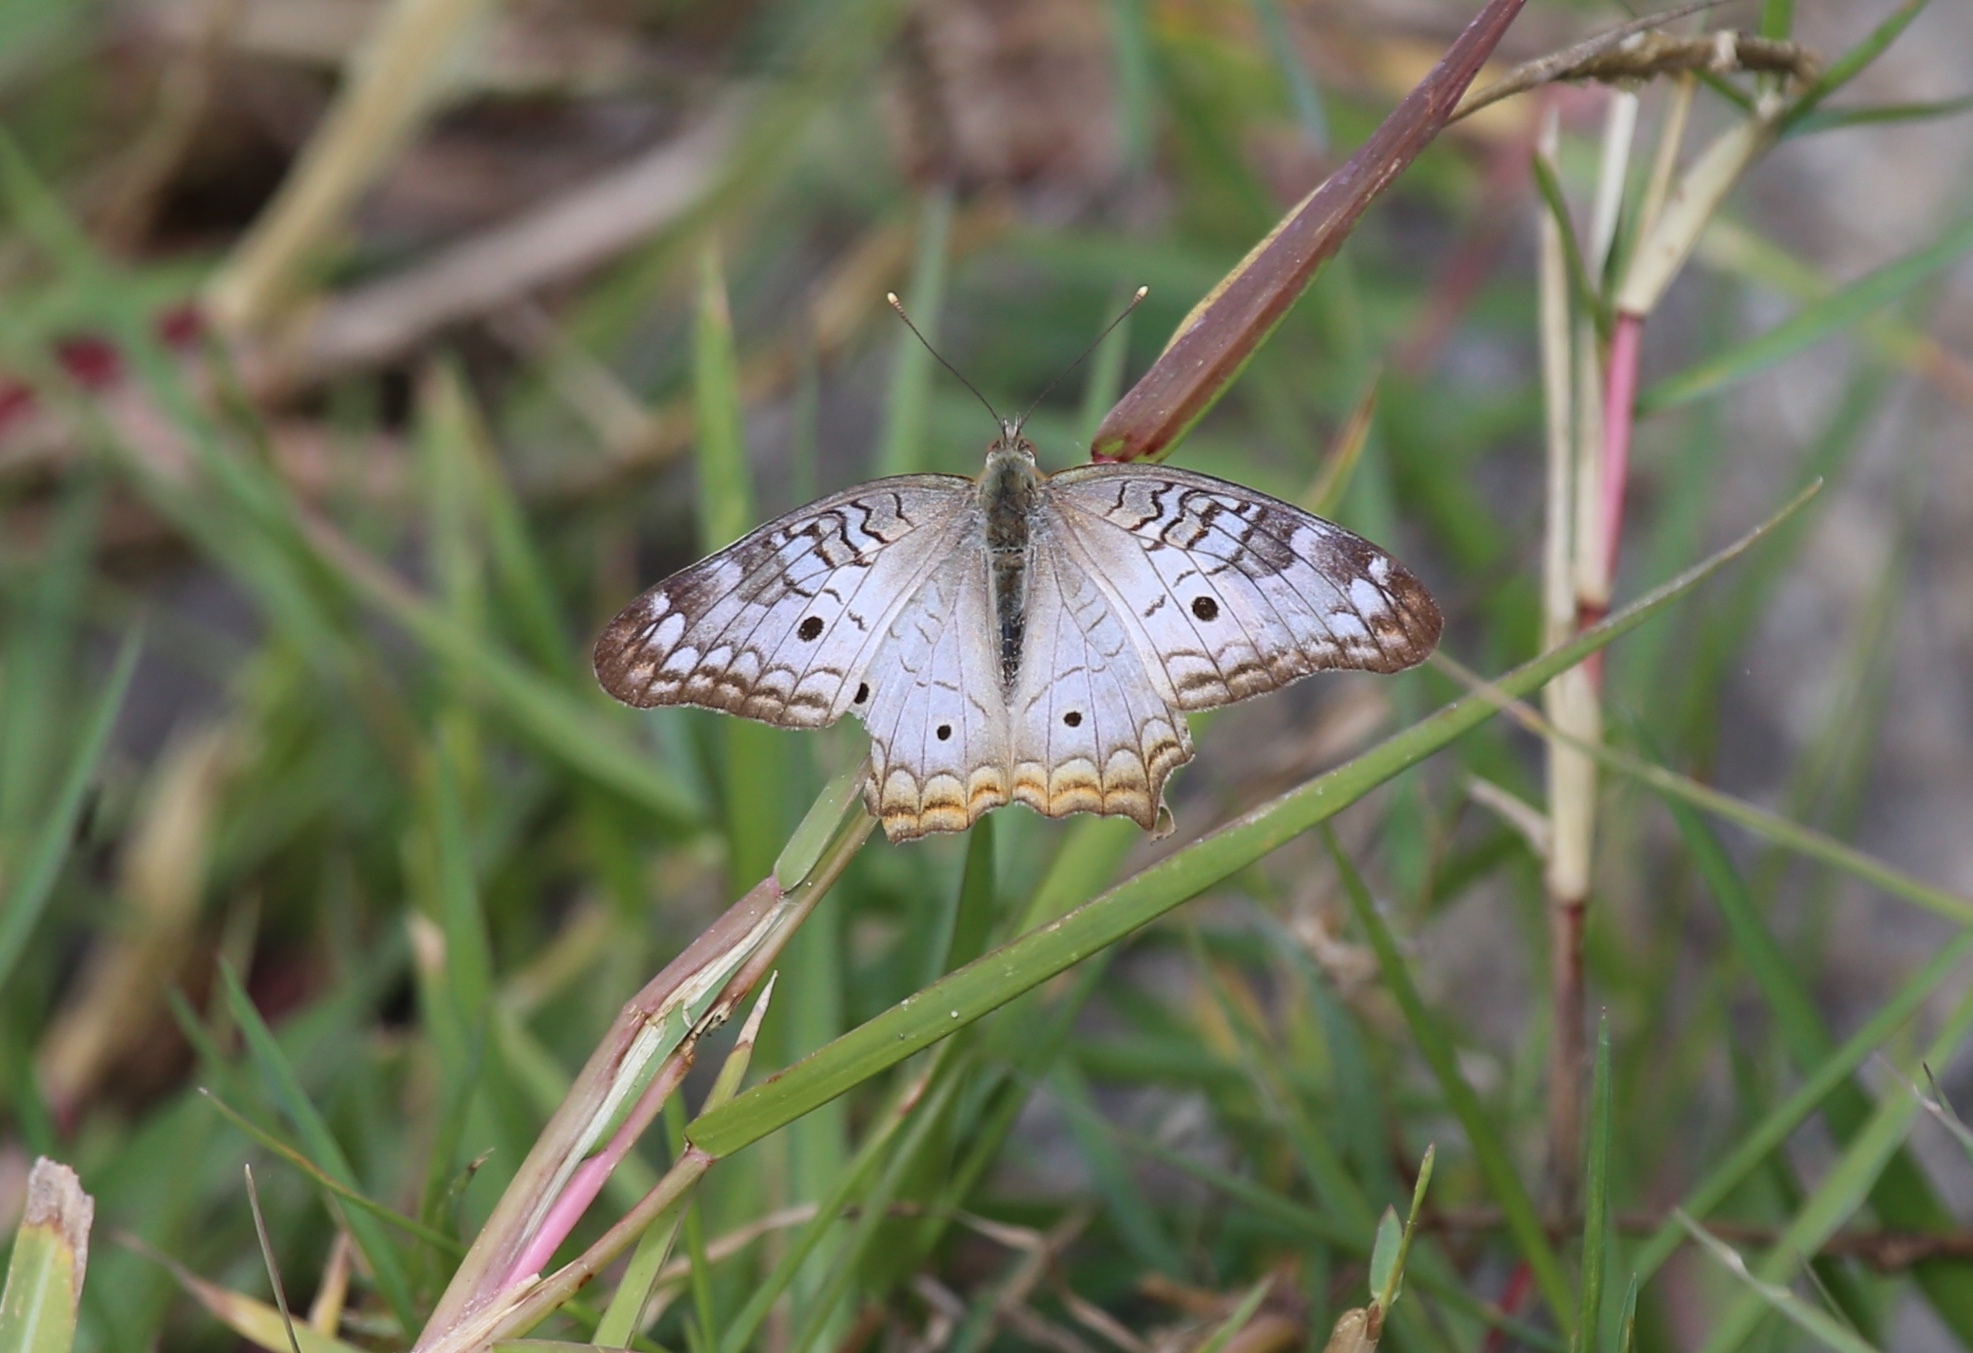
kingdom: Animalia
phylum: Arthropoda
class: Insecta
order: Lepidoptera
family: Nymphalidae
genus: Anartia
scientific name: Anartia jatrophae
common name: White peacock
